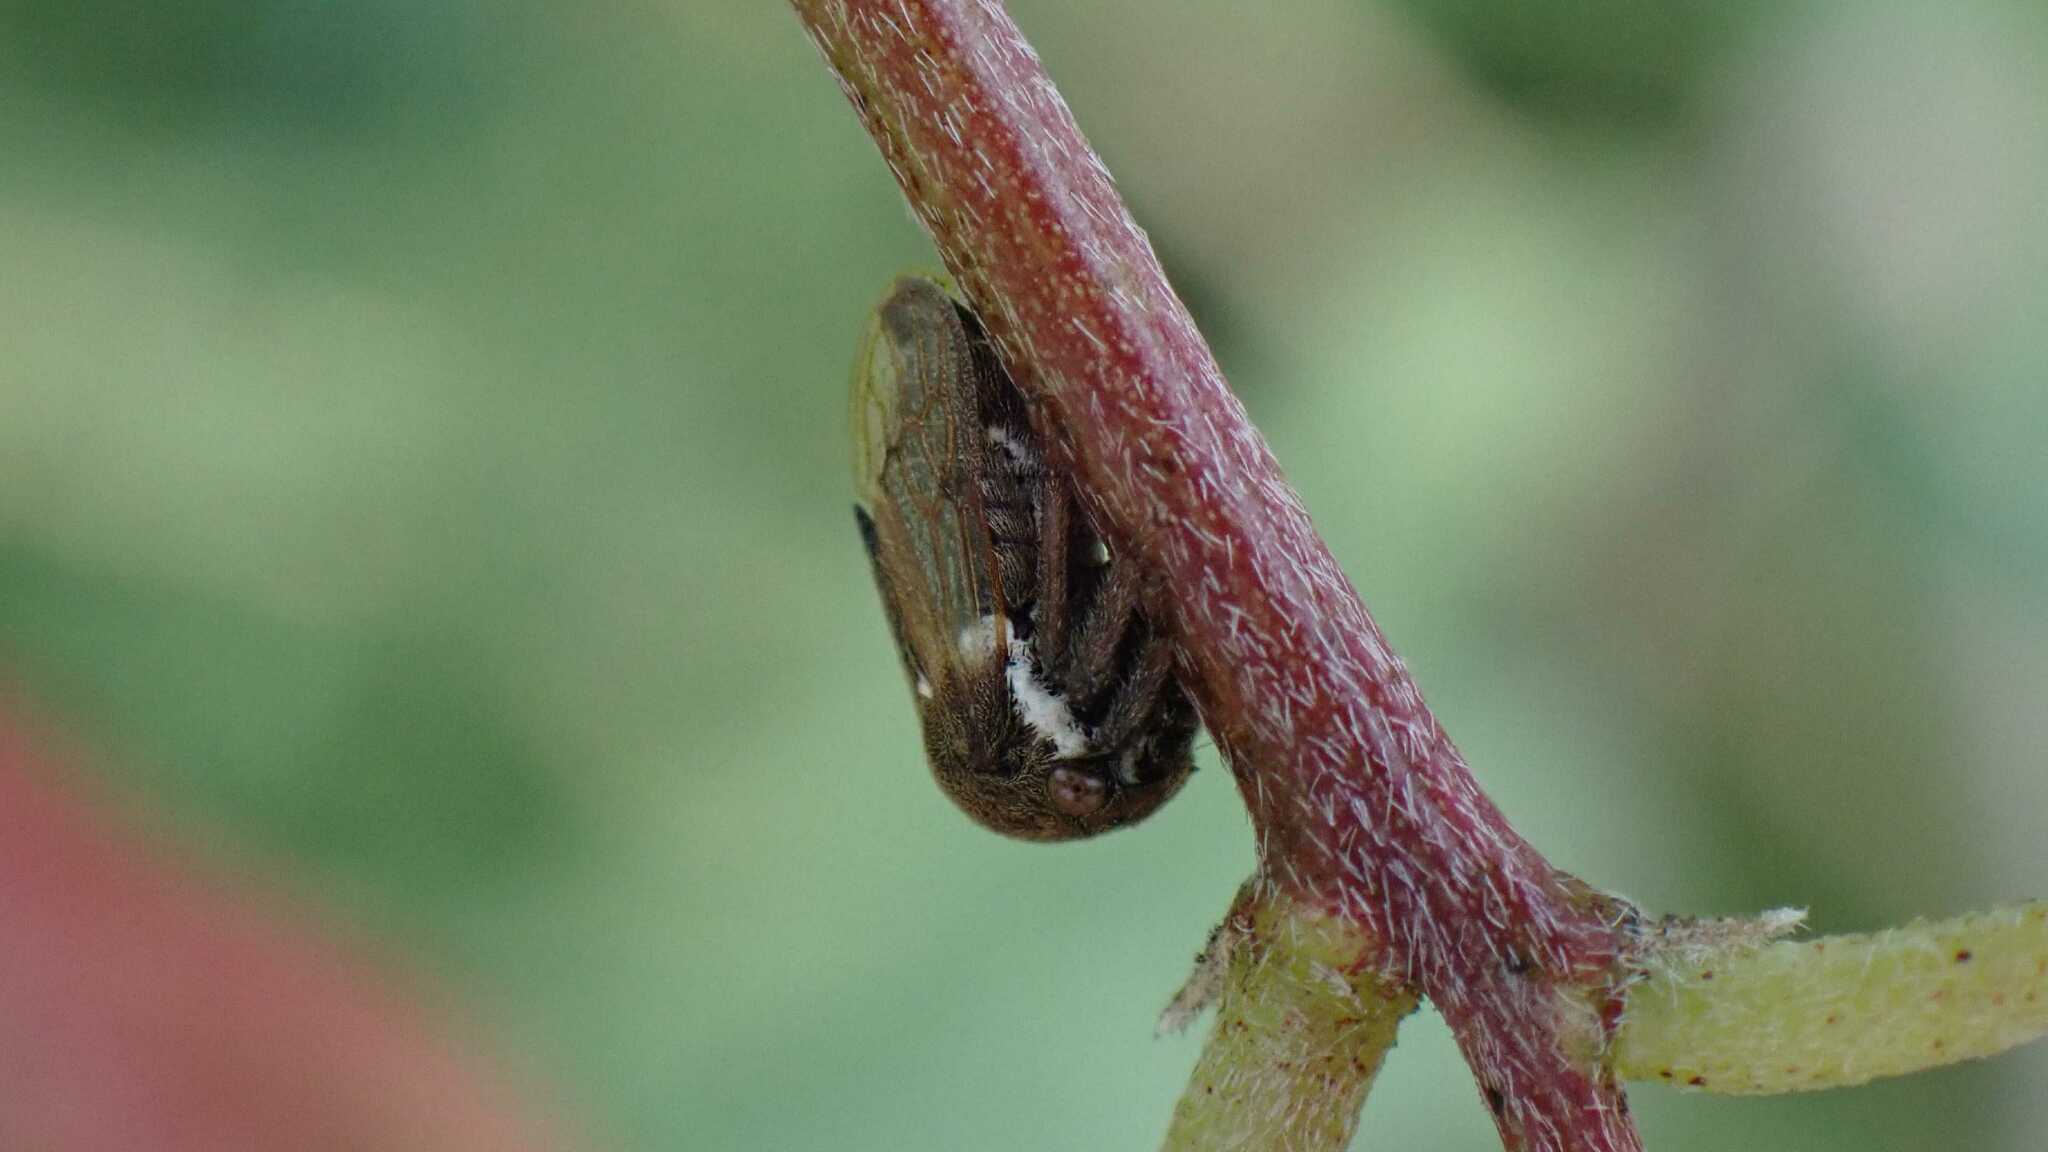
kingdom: Animalia
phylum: Arthropoda
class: Insecta
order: Hemiptera
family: Membracidae
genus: Gargara
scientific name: Gargara genistae
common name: Treehopper
